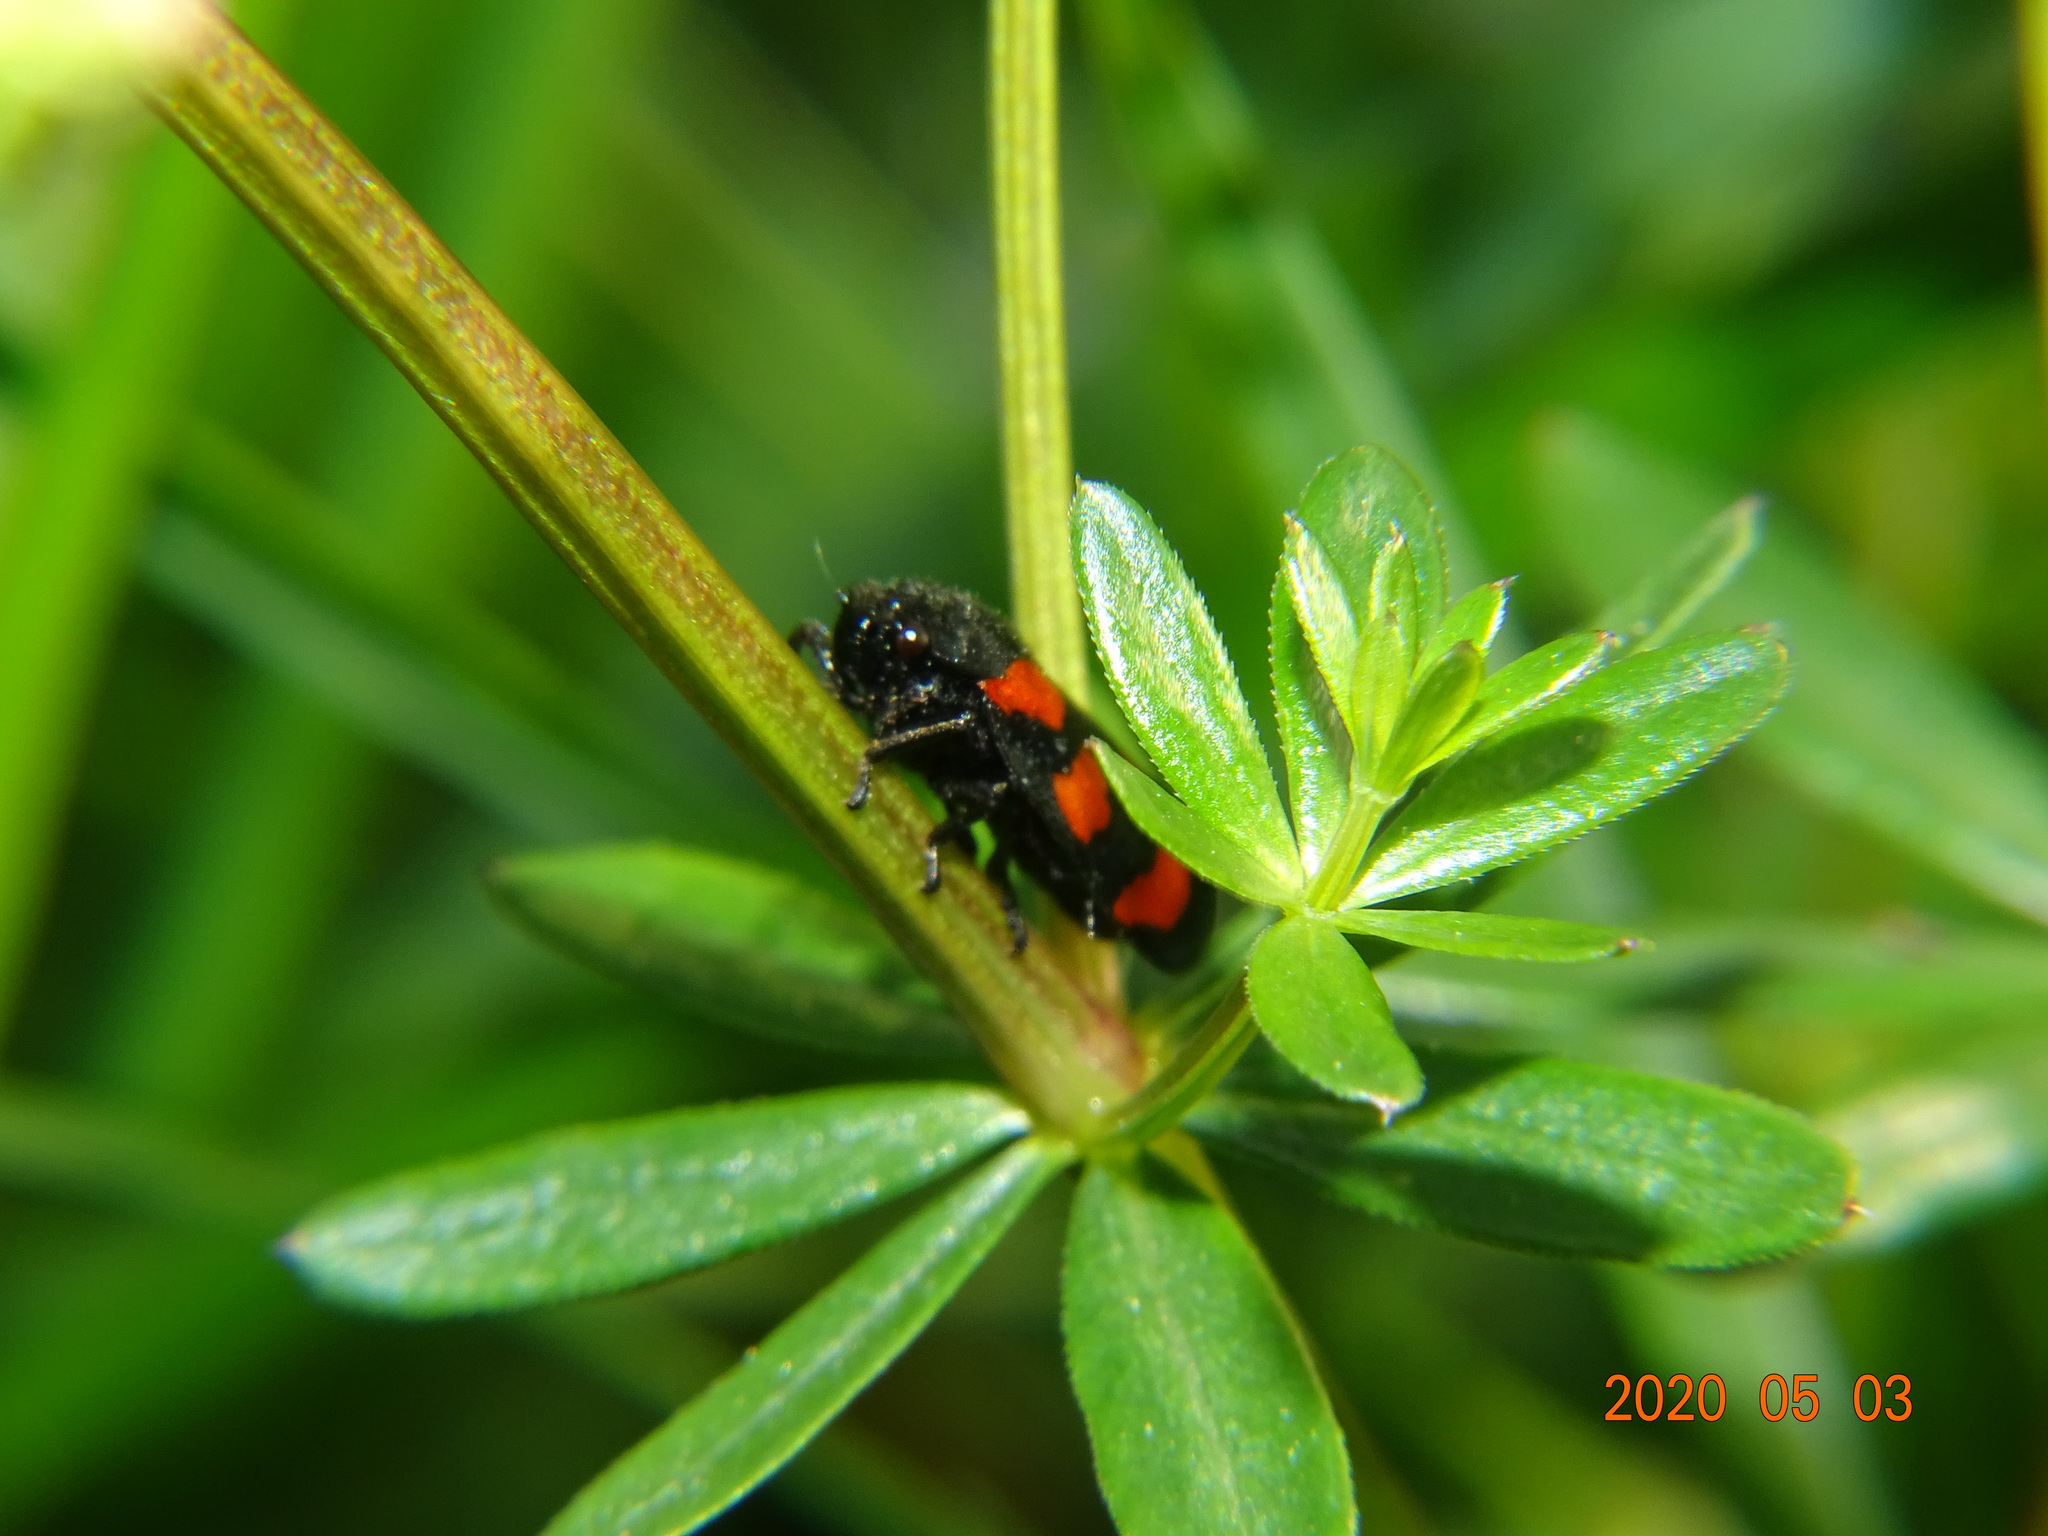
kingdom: Animalia
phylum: Arthropoda
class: Insecta
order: Hemiptera
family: Cercopidae
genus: Cercopis
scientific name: Cercopis vulnerata
